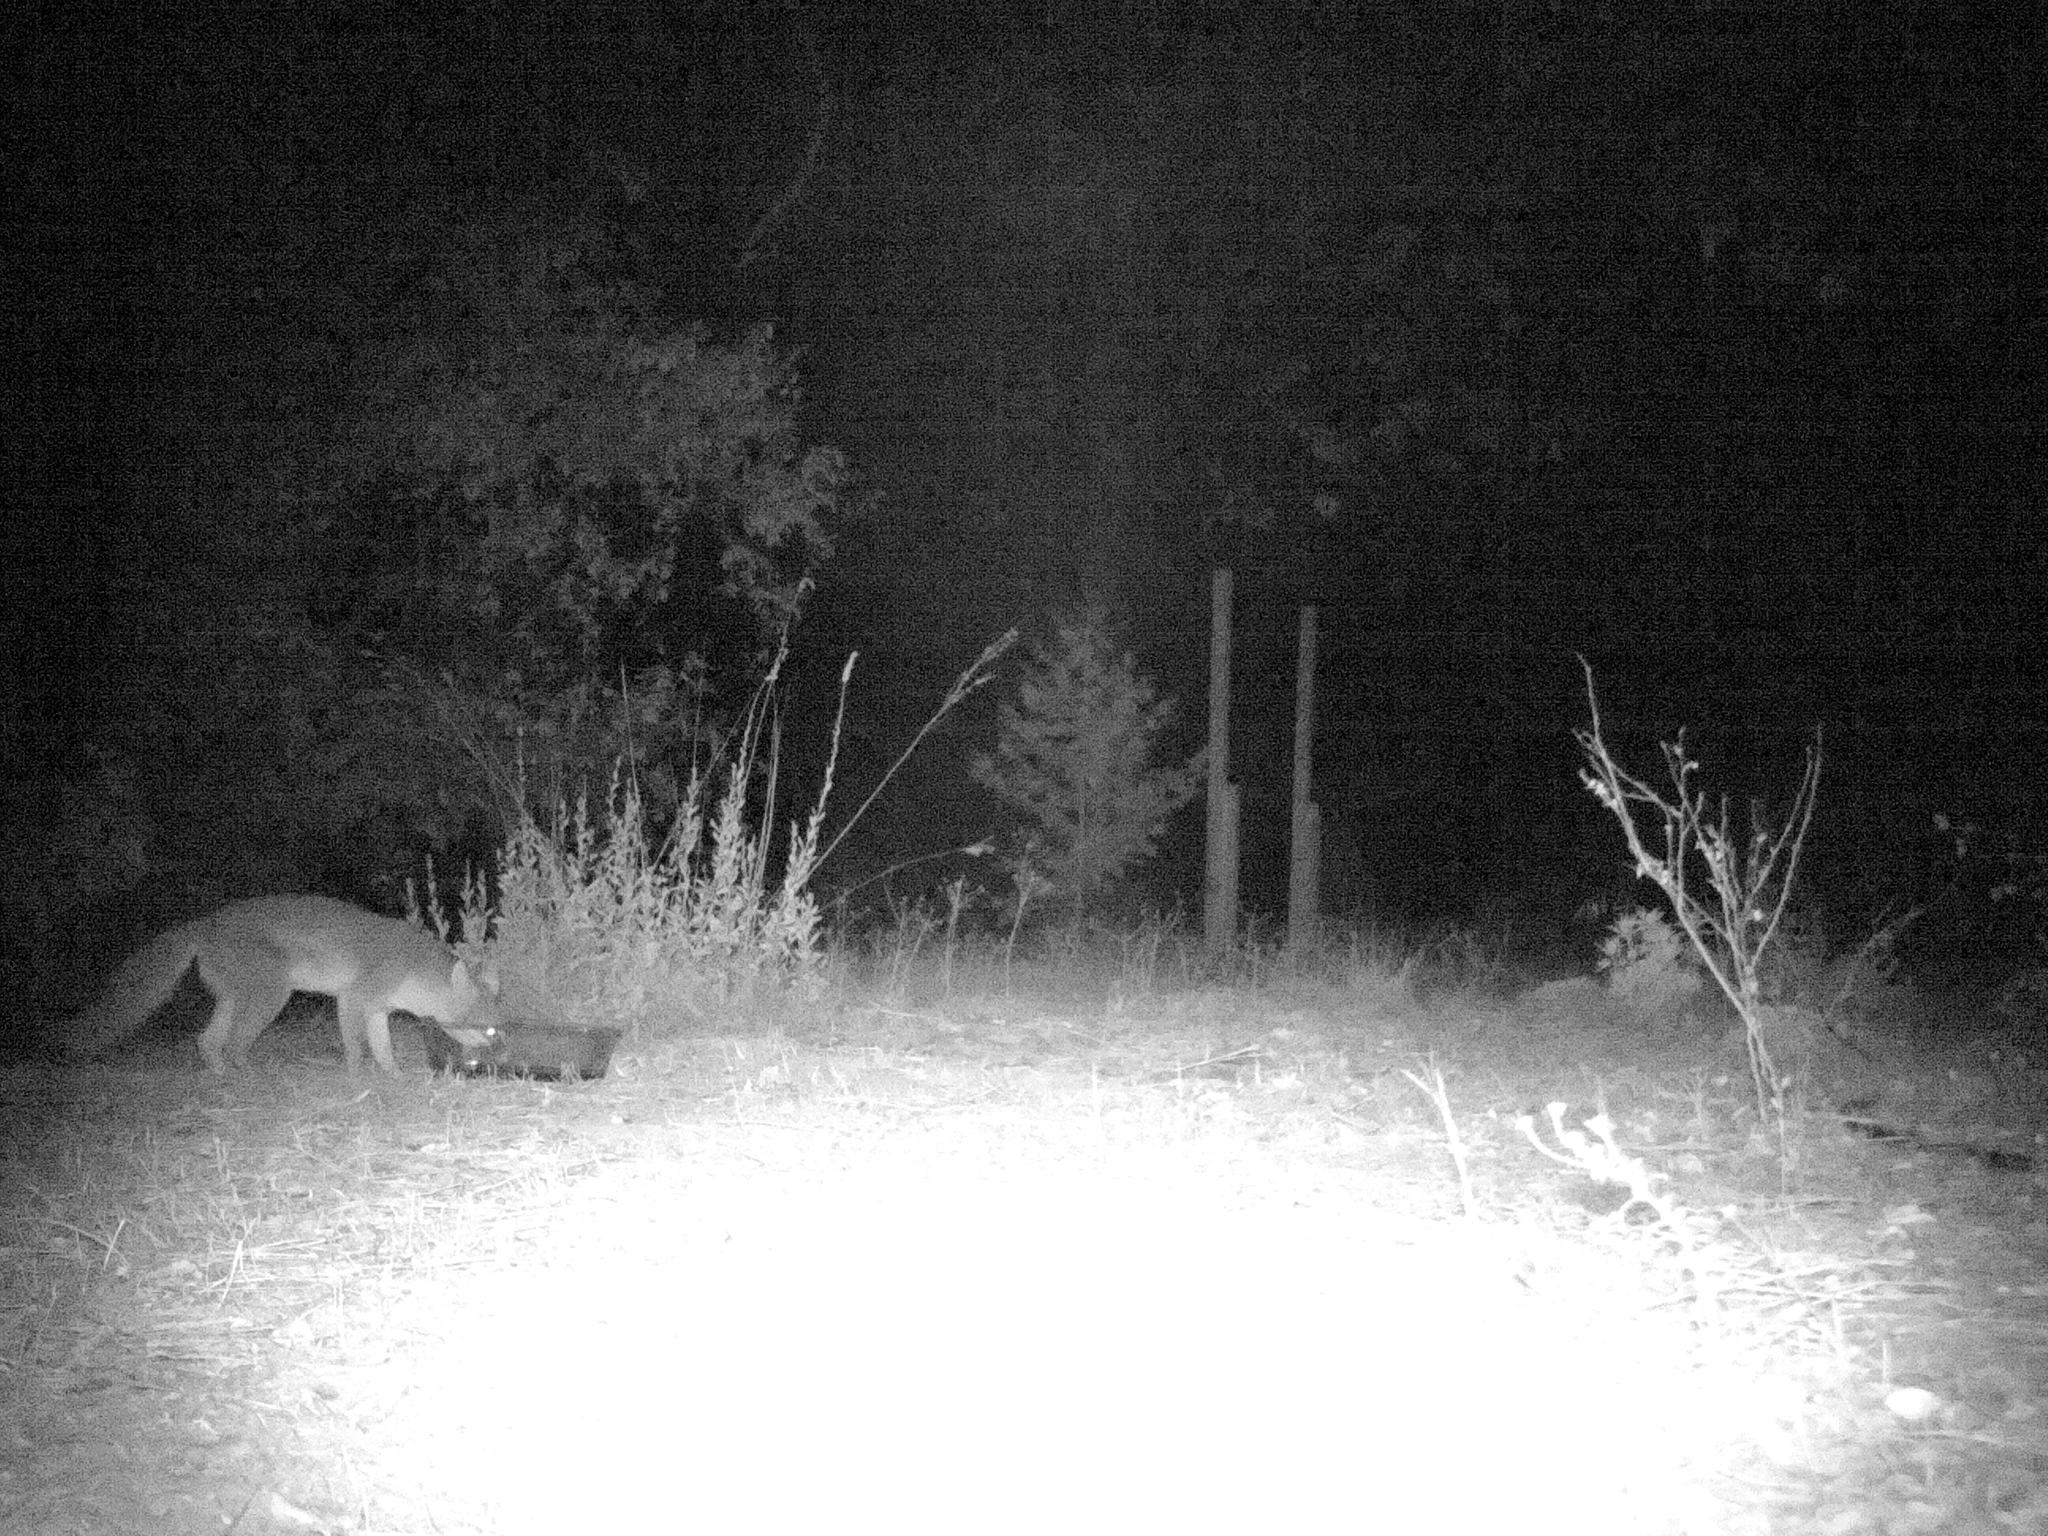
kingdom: Animalia
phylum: Chordata
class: Mammalia
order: Carnivora
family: Canidae
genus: Urocyon
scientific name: Urocyon cinereoargenteus
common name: Gray fox
